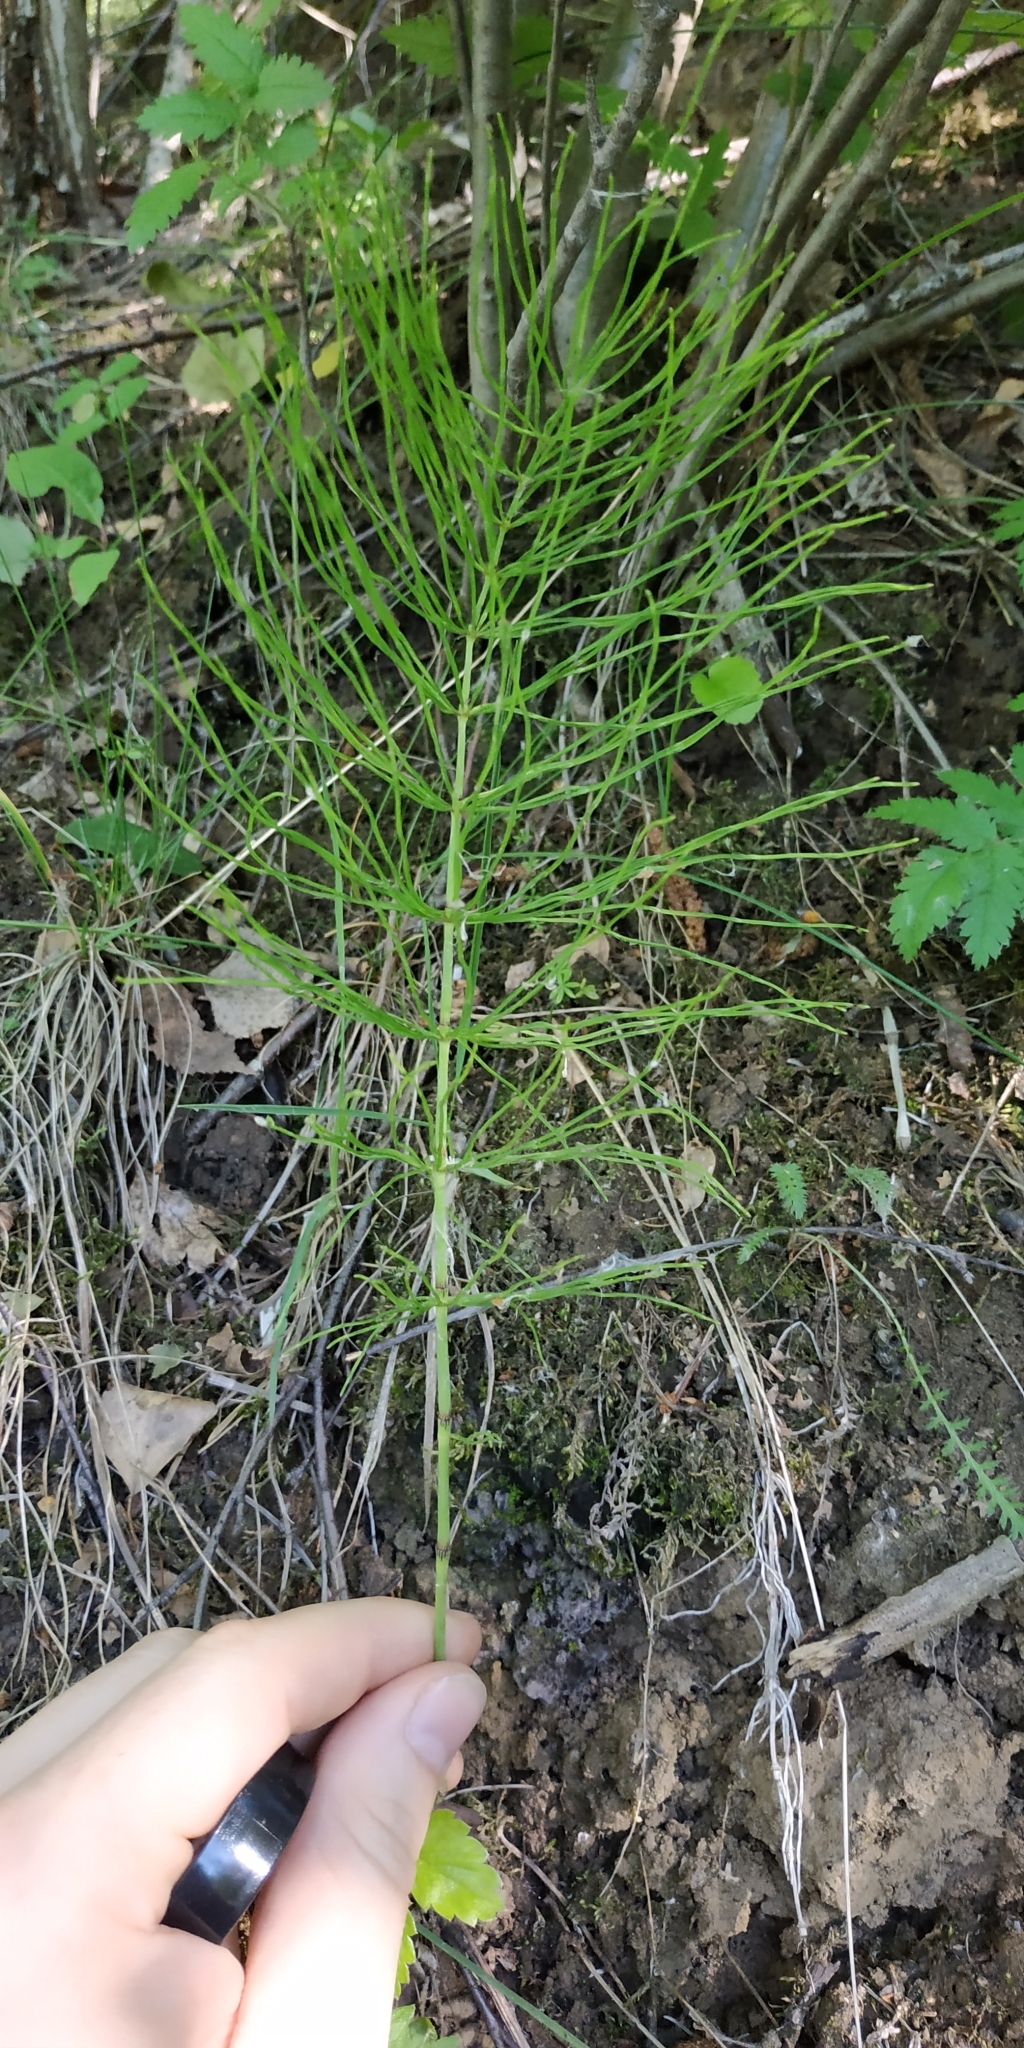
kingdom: Plantae
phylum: Tracheophyta
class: Polypodiopsida
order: Equisetales
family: Equisetaceae
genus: Equisetum
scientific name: Equisetum pratense
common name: Meadow horsetail
